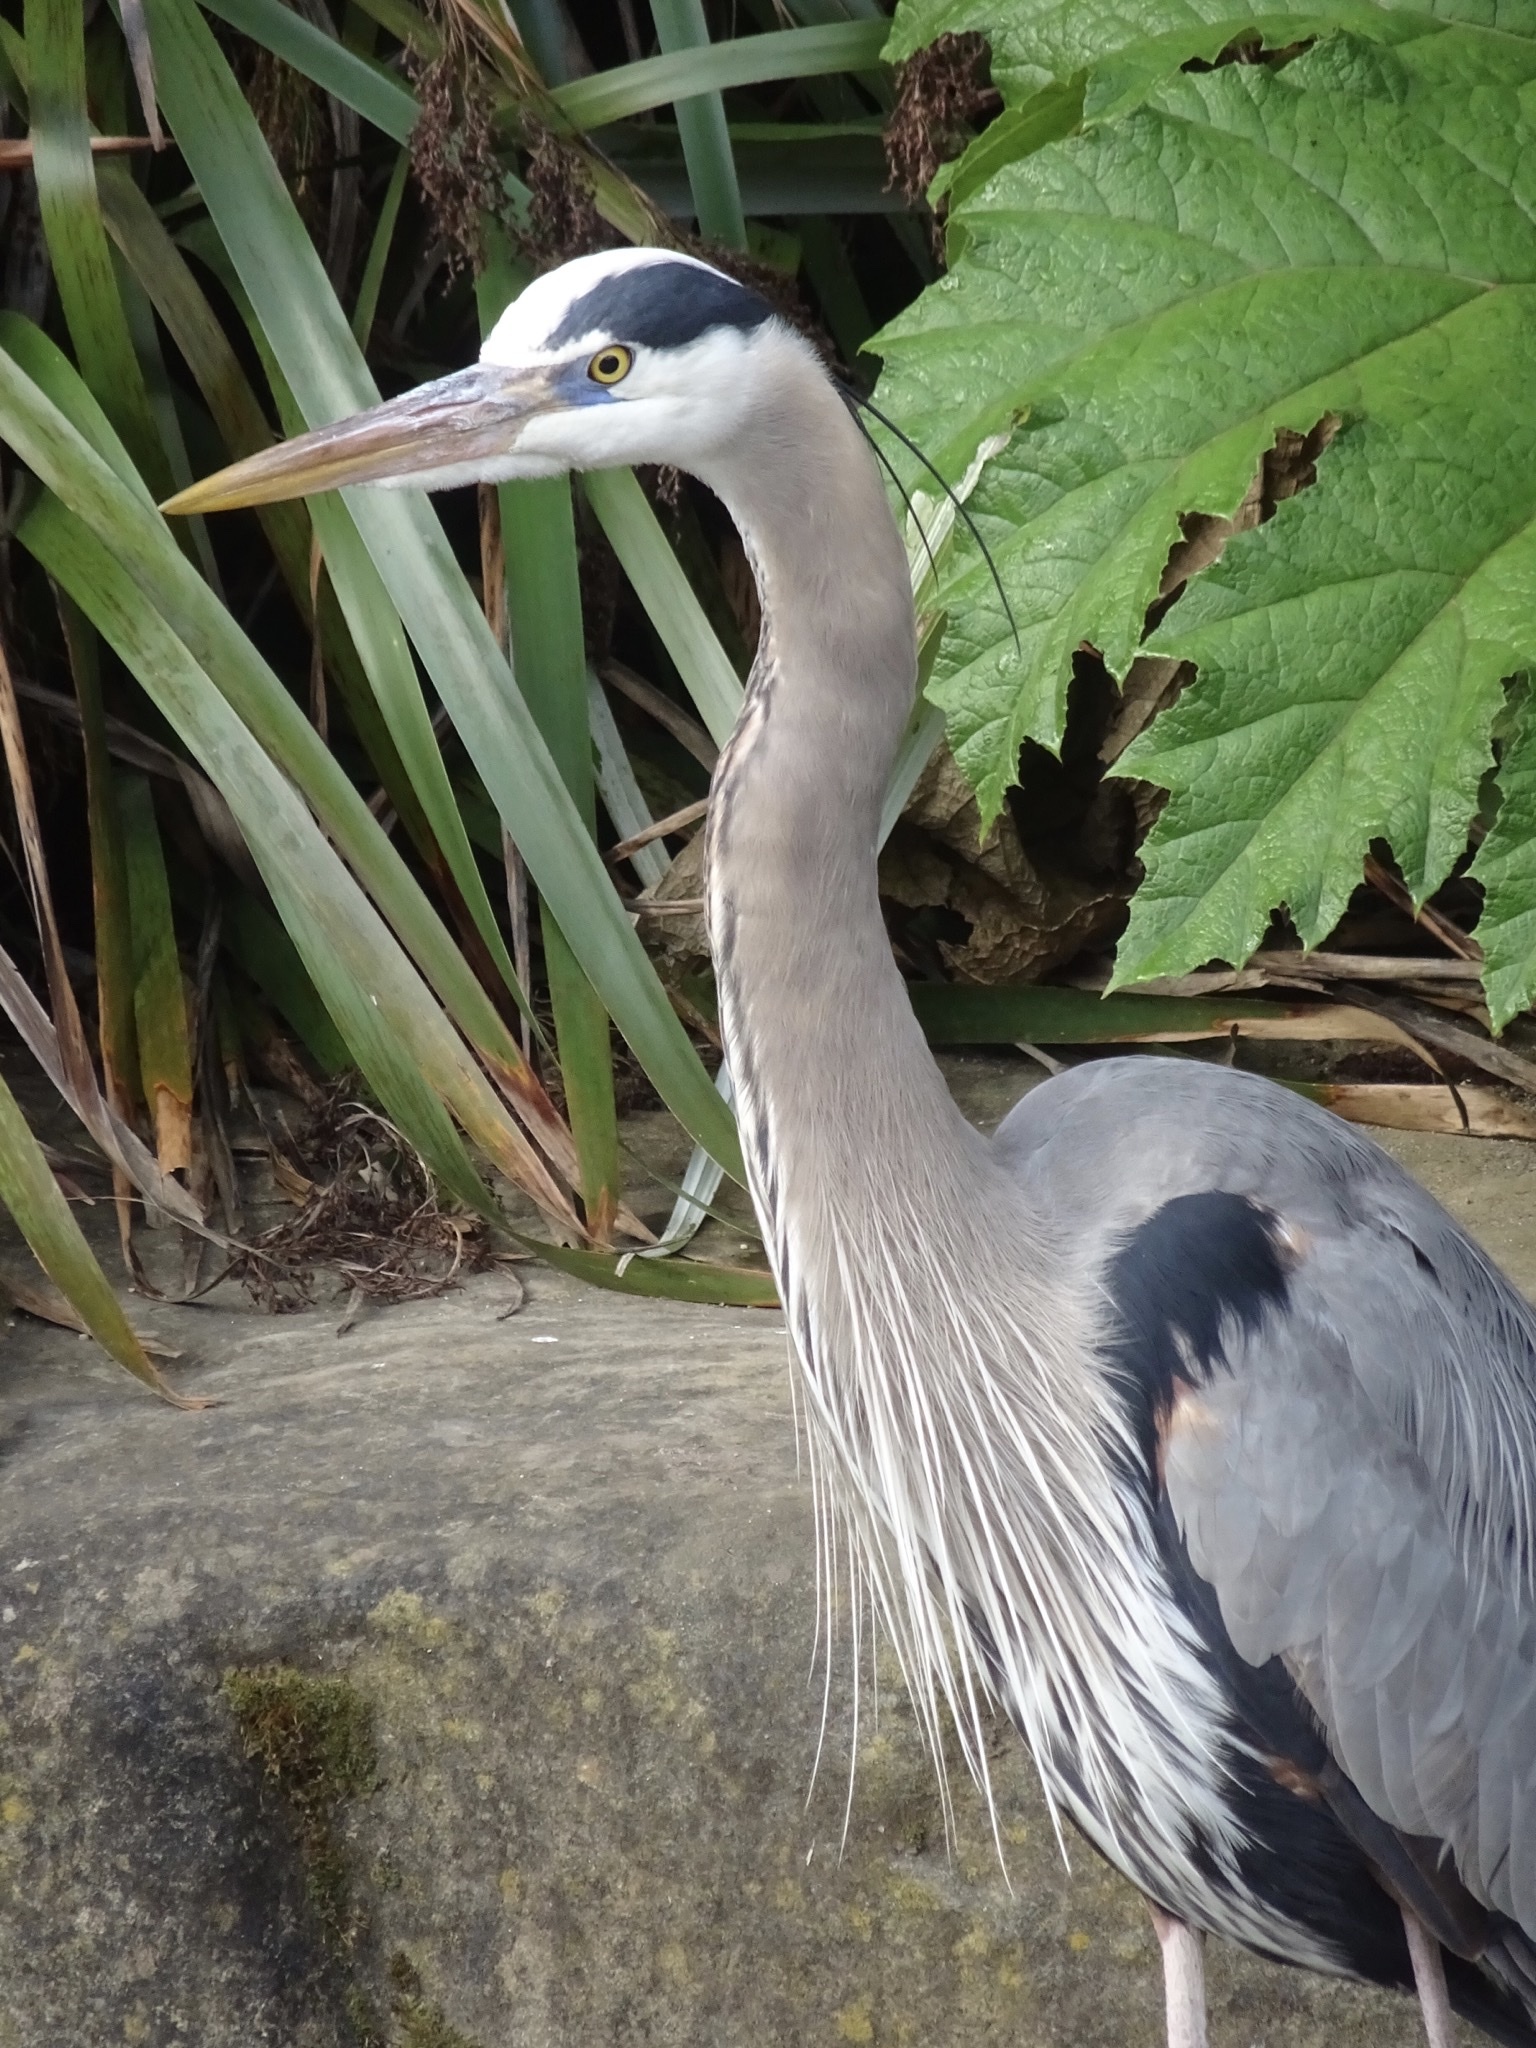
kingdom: Animalia
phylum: Chordata
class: Aves
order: Pelecaniformes
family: Ardeidae
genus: Ardea
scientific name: Ardea herodias
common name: Great blue heron
